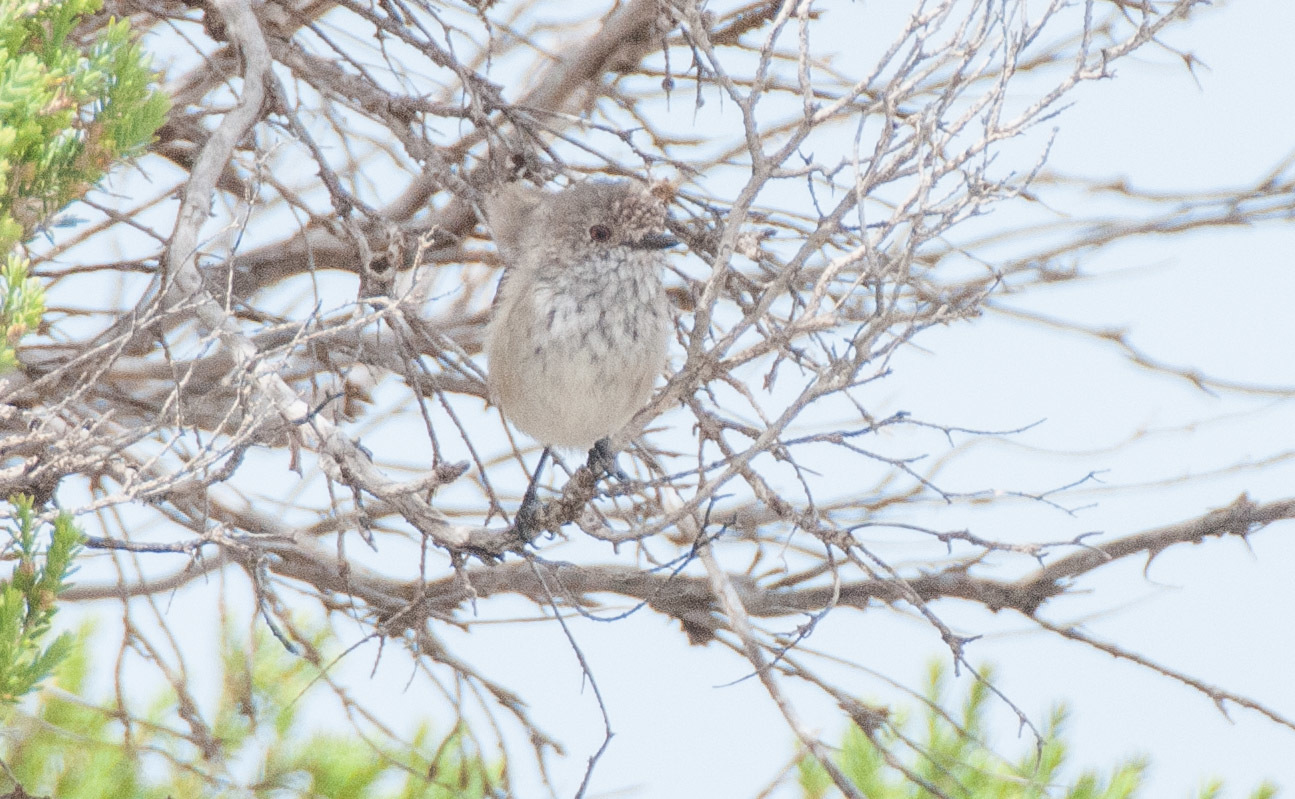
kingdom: Animalia
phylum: Chordata
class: Aves
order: Passeriformes
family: Acanthizidae
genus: Acanthiza
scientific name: Acanthiza apicalis
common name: Inland thornbill
